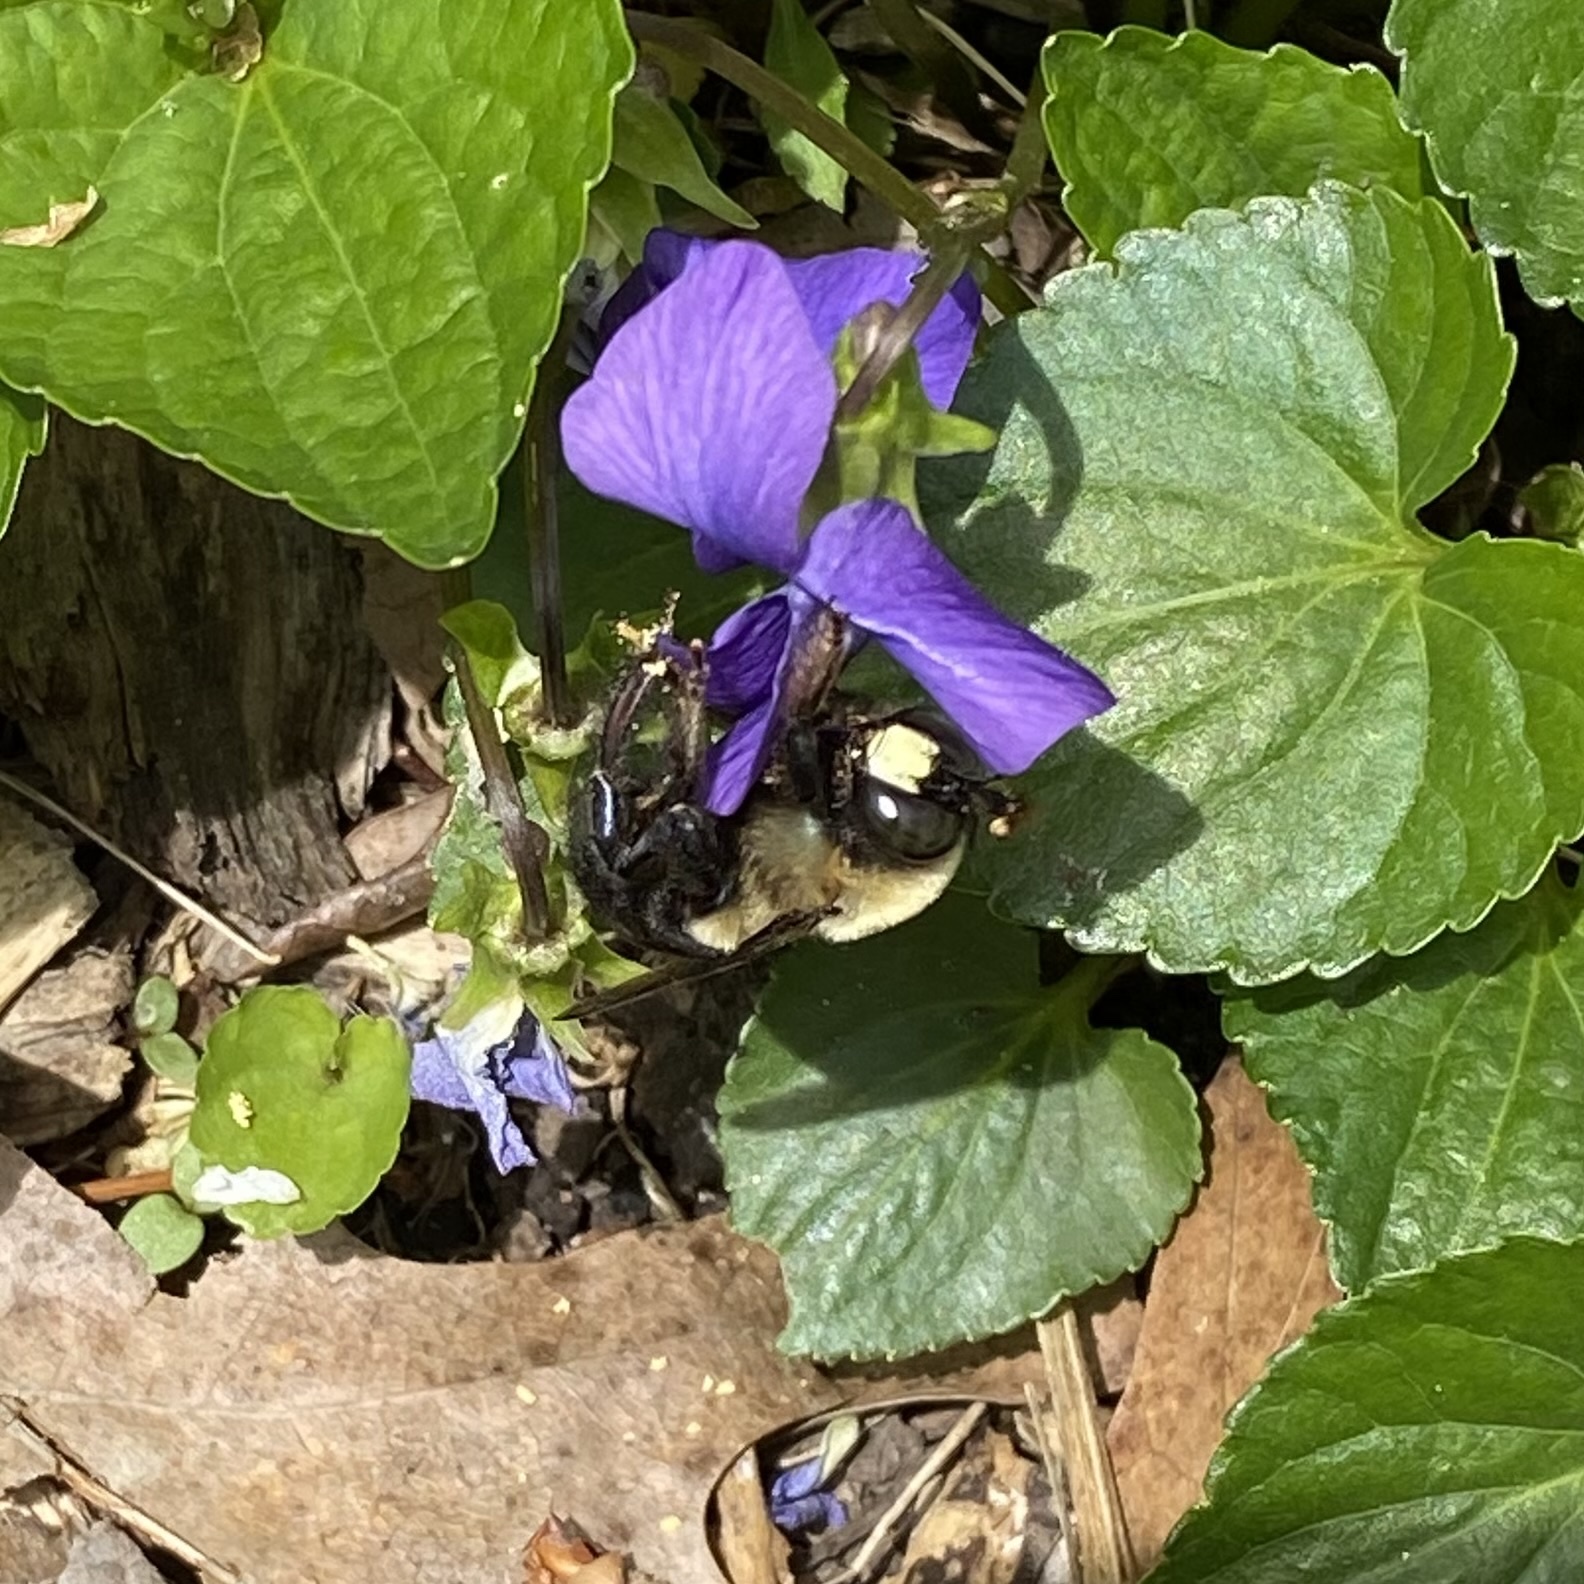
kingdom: Animalia
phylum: Arthropoda
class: Insecta
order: Hymenoptera
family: Apidae
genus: Xylocopa
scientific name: Xylocopa virginica
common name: Carpenter bee
